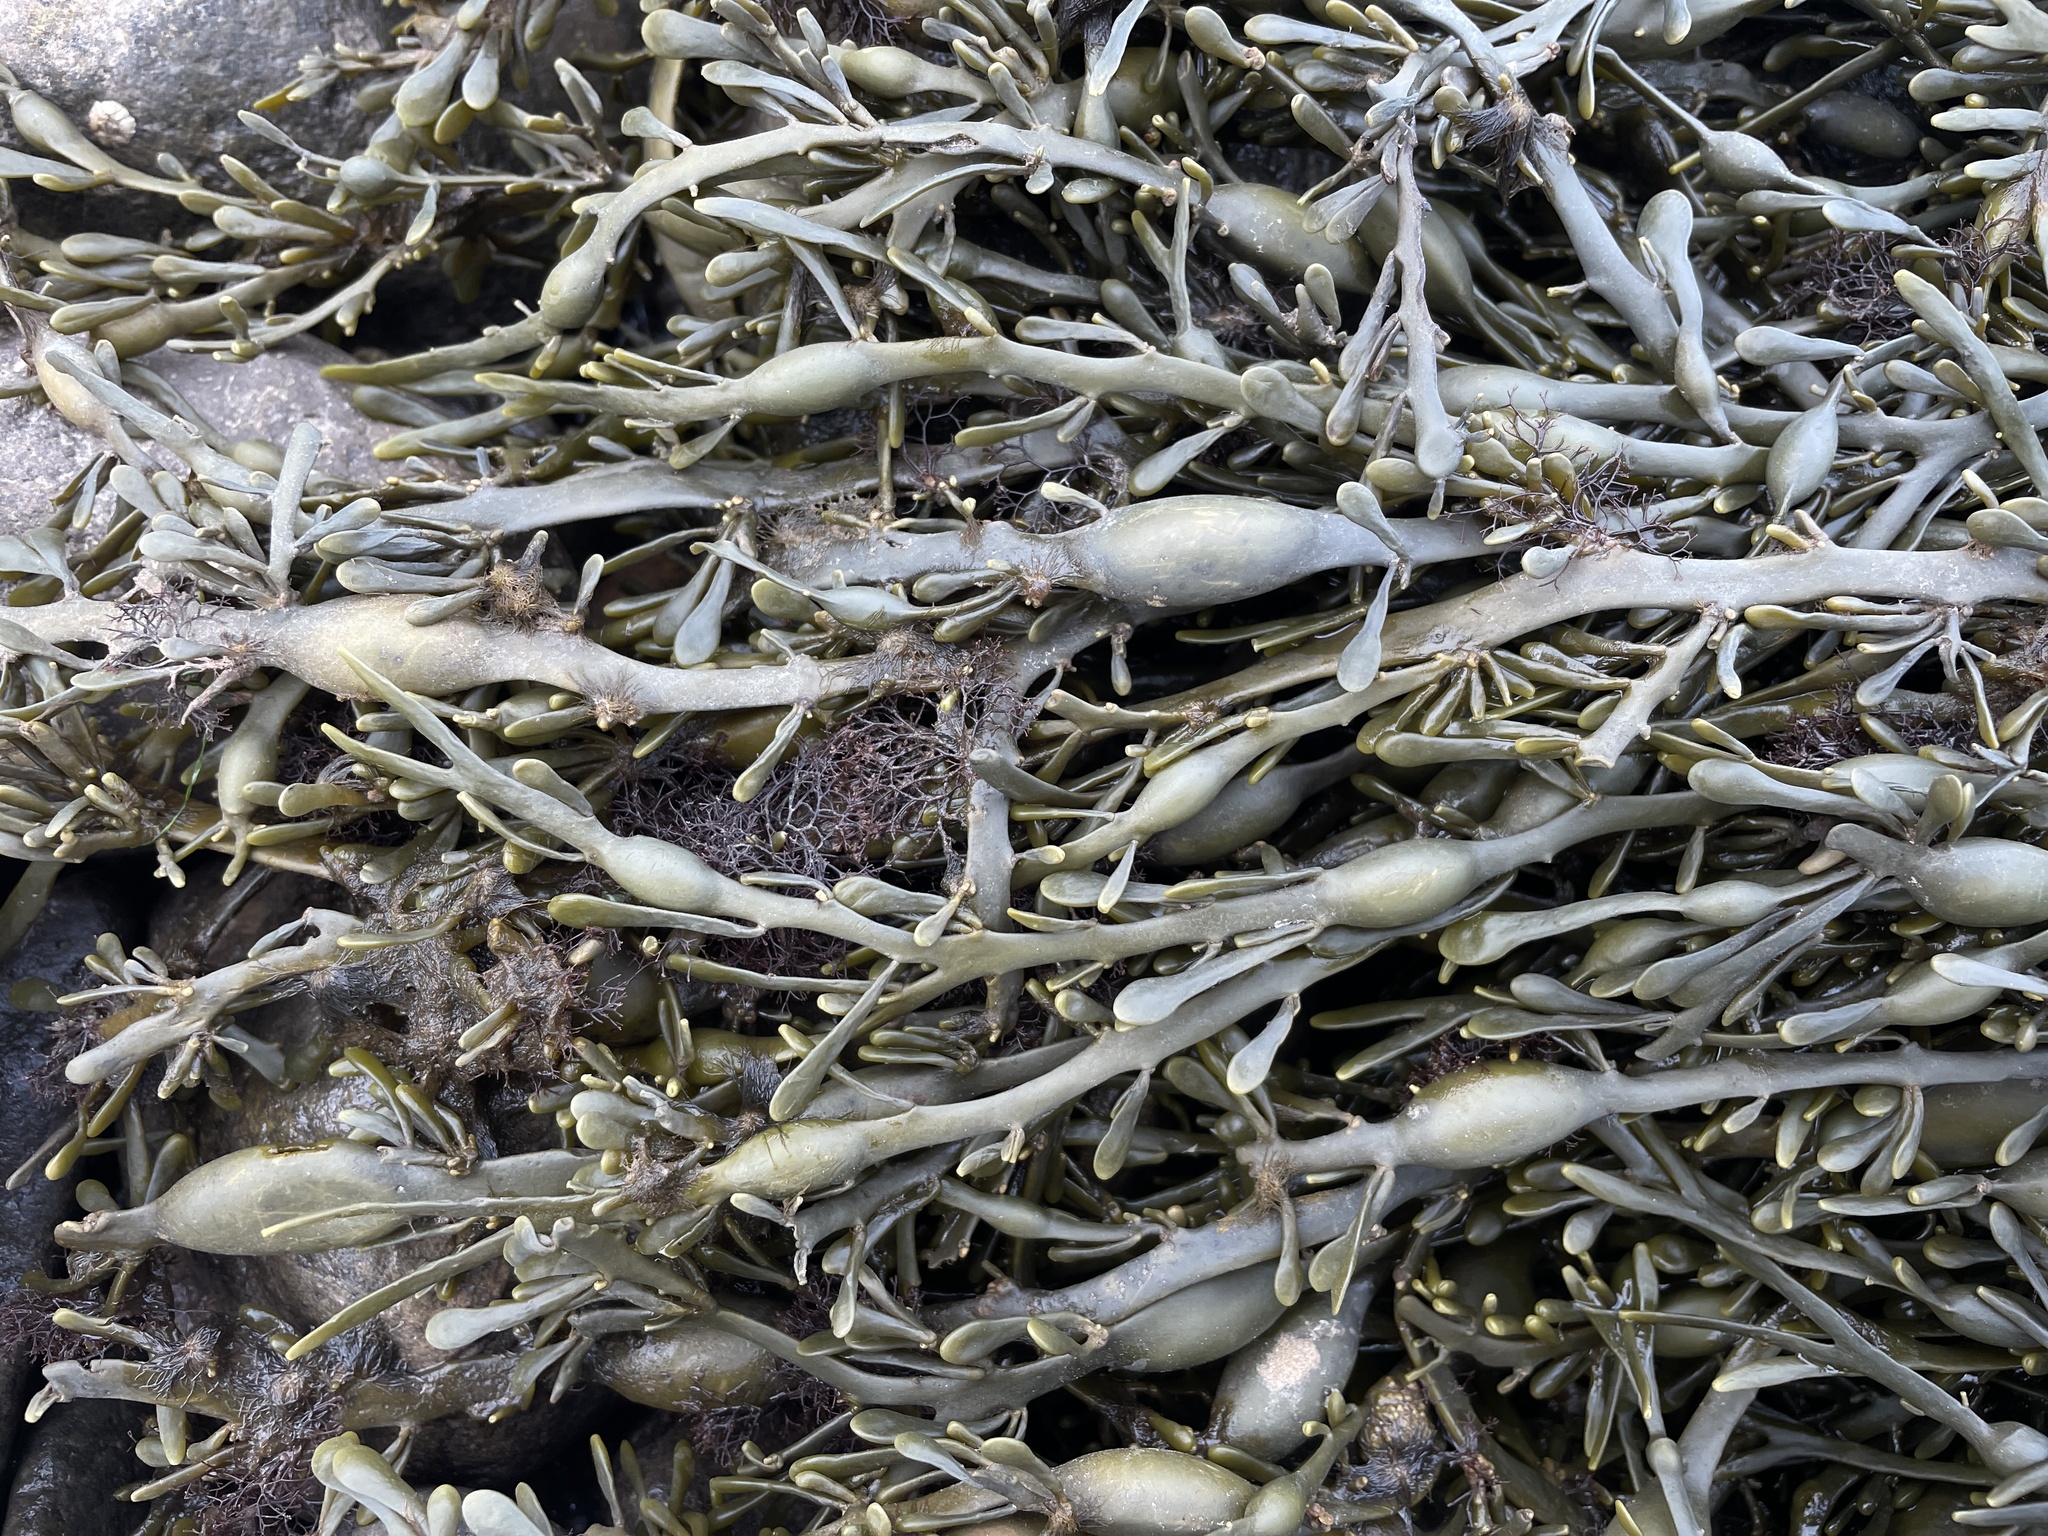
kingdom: Chromista
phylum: Ochrophyta
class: Phaeophyceae
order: Fucales
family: Fucaceae
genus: Ascophyllum
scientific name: Ascophyllum nodosum
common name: Knotted wrack
